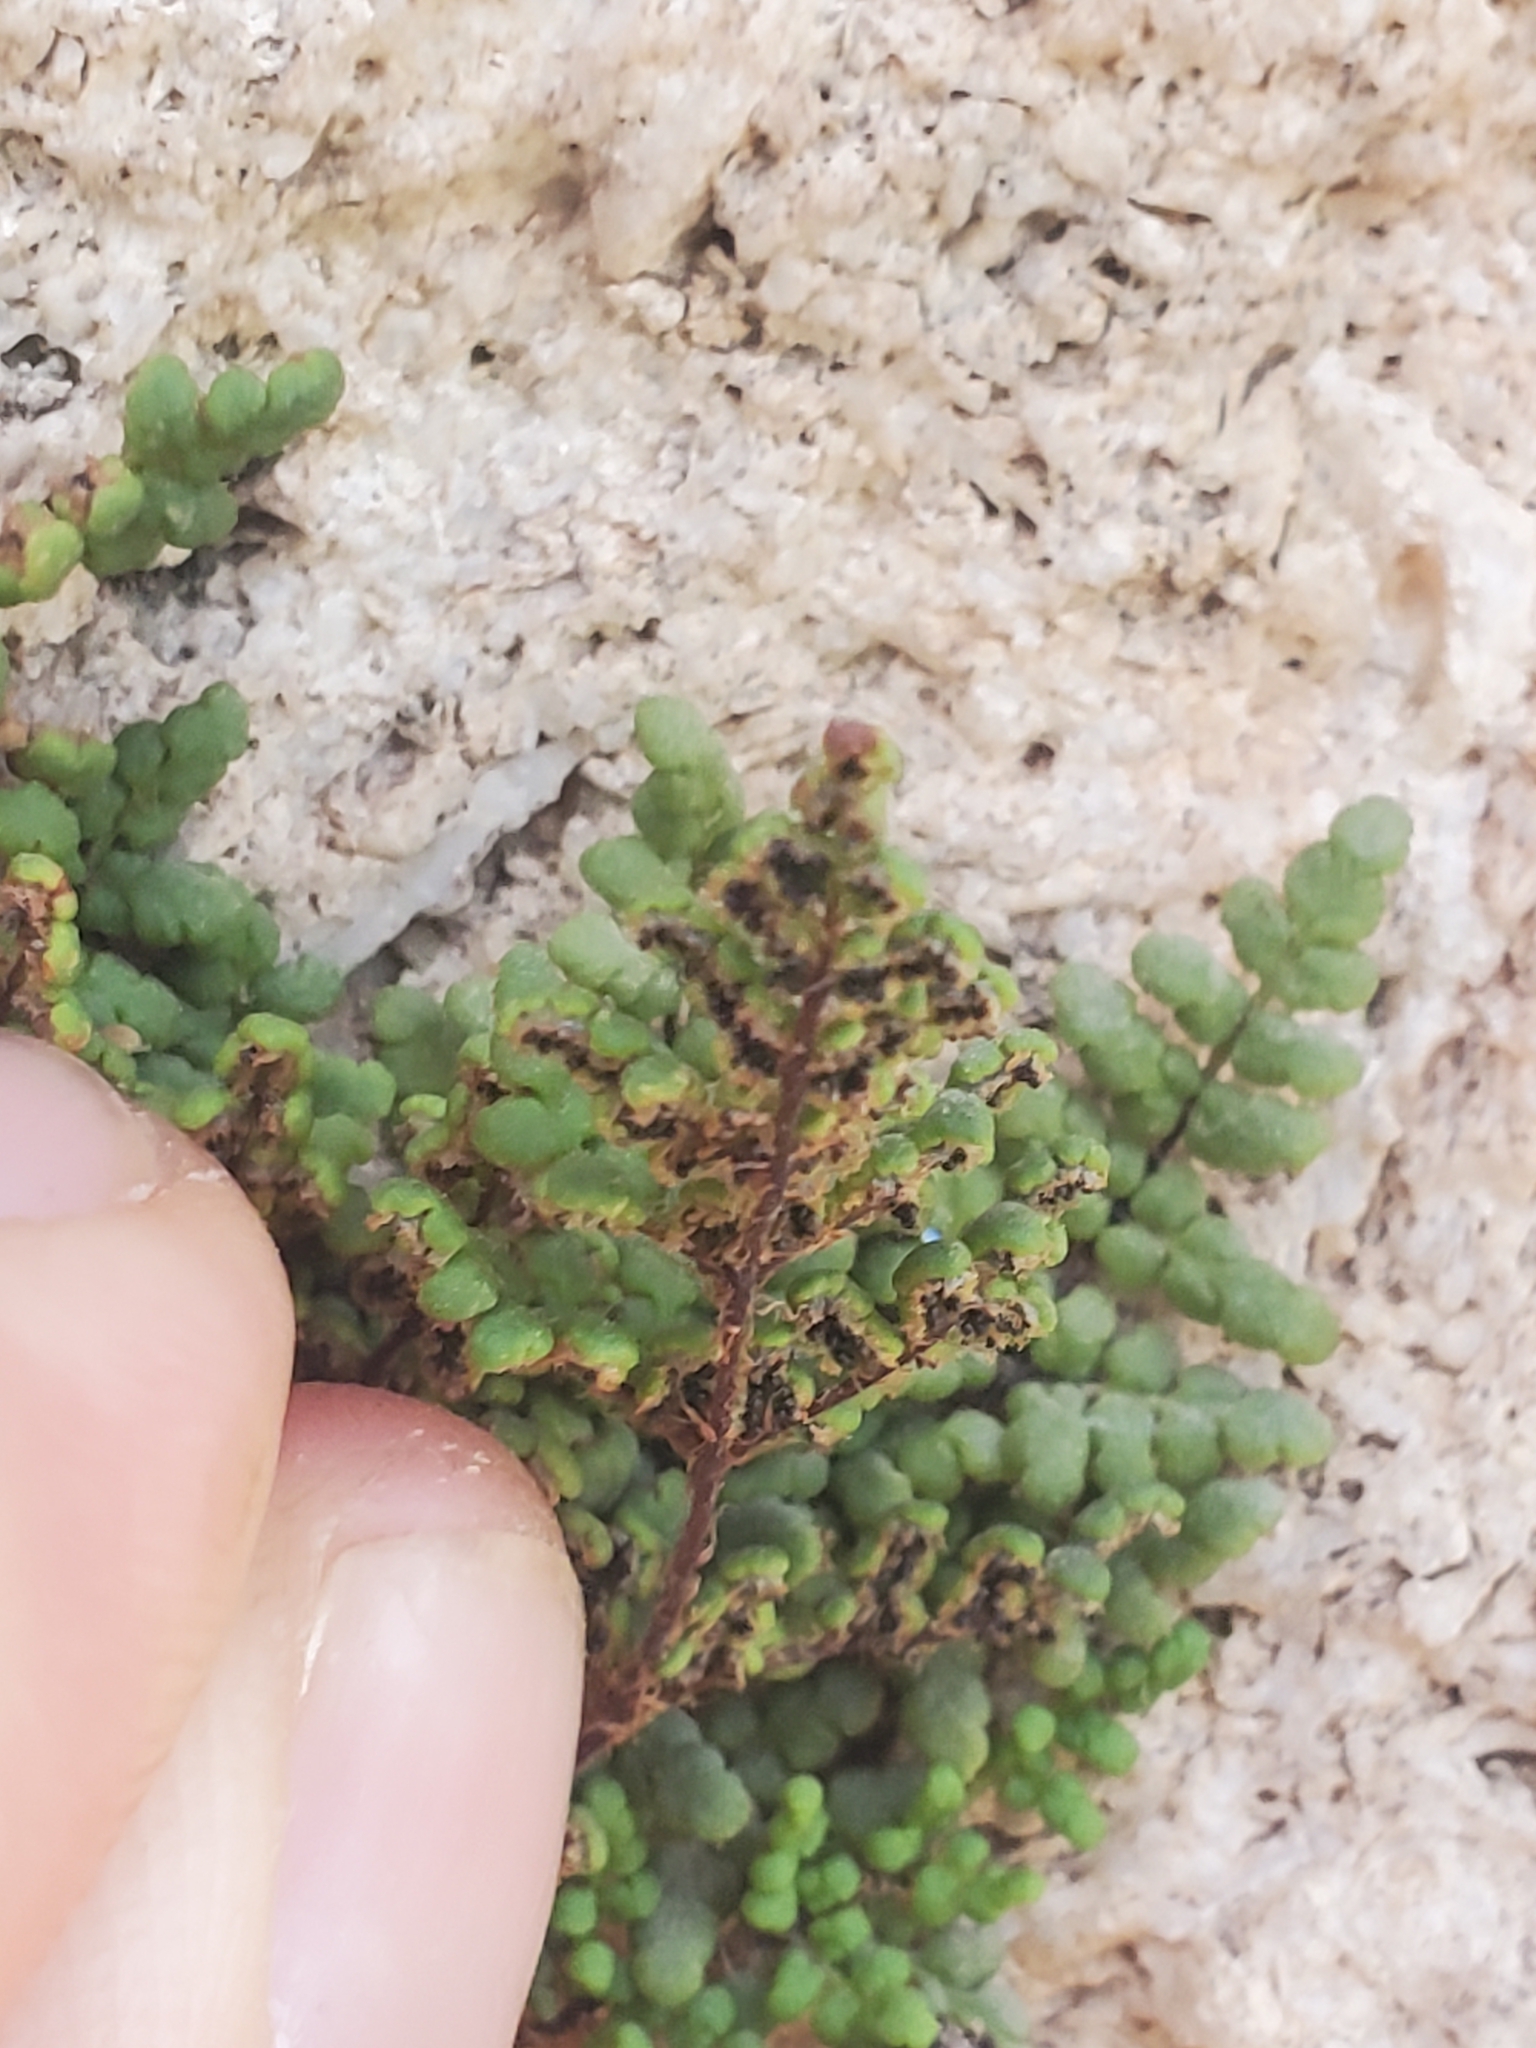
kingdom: Plantae
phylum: Tracheophyta
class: Polypodiopsida
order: Polypodiales
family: Pteridaceae
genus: Oeosporangium
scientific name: Oeosporangium pteridioides
